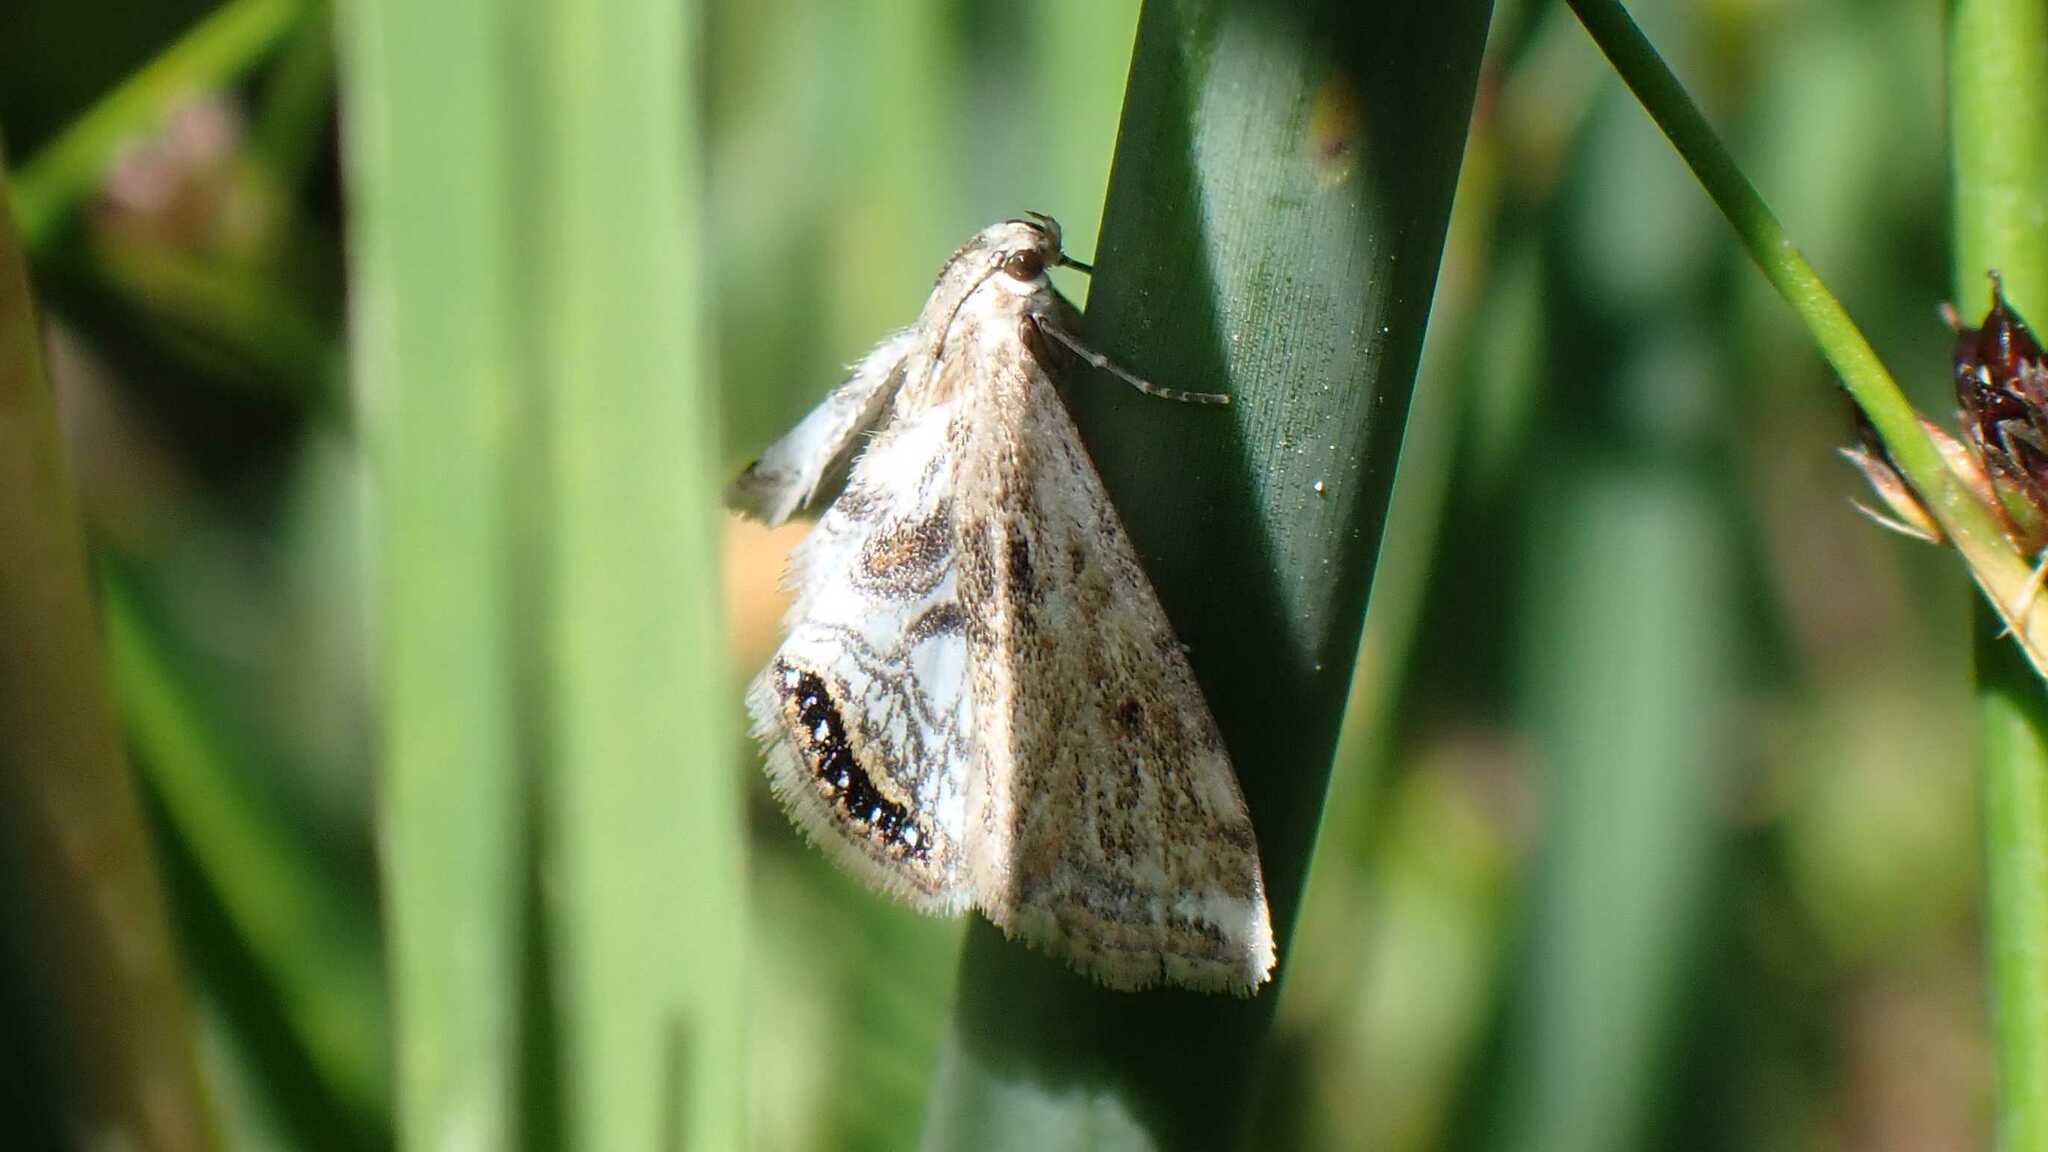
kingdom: Animalia
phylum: Arthropoda
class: Insecta
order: Lepidoptera
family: Crambidae
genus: Cataclysta
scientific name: Cataclysta lemnata
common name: Small china-mark
